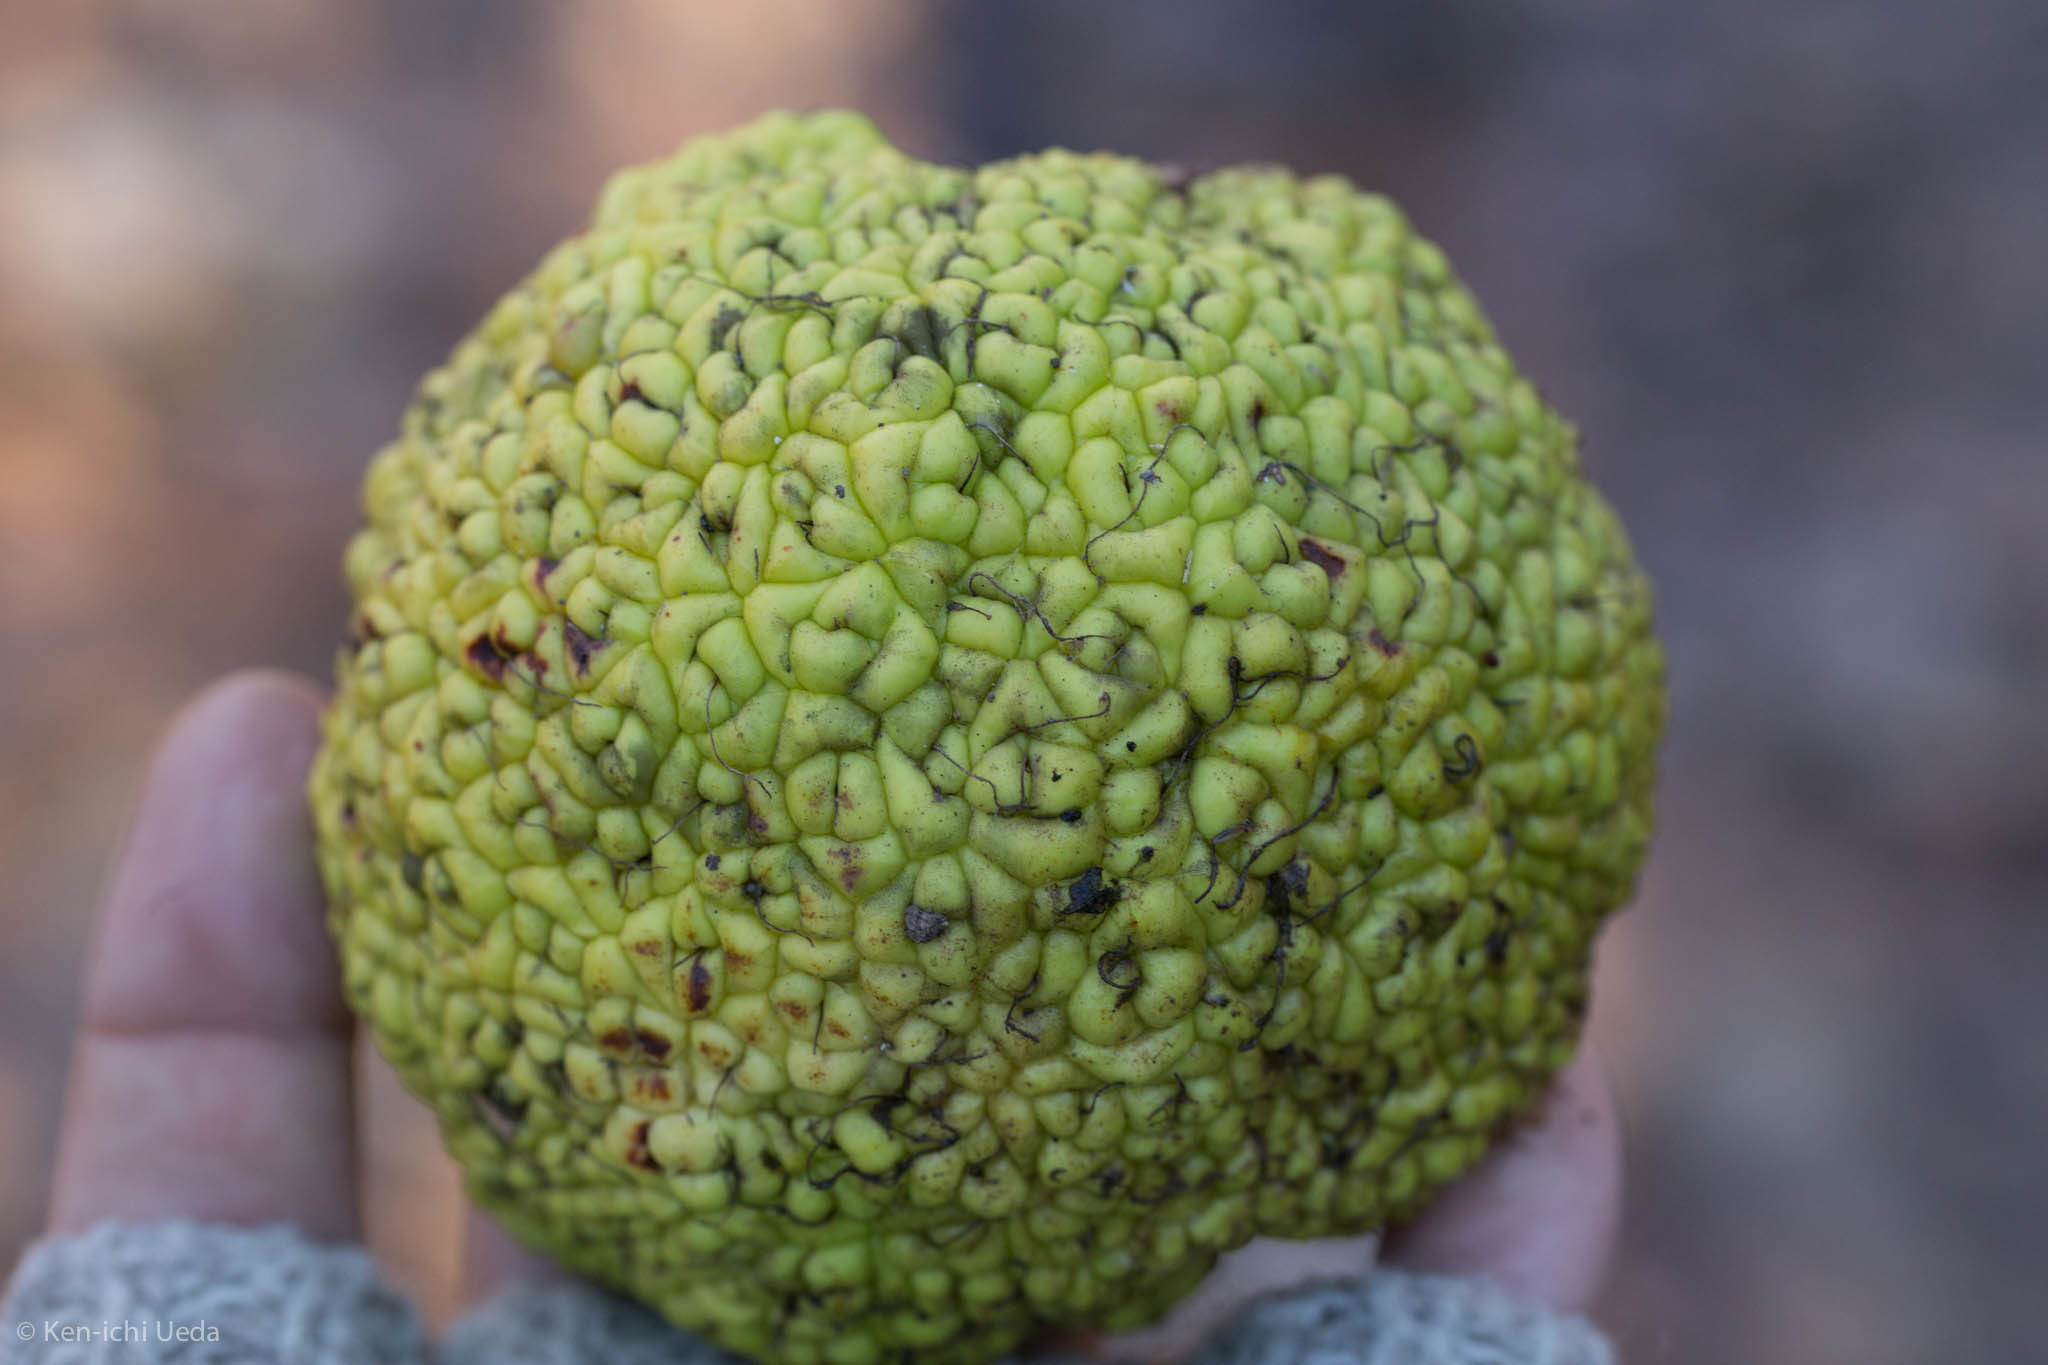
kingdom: Plantae
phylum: Tracheophyta
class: Magnoliopsida
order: Rosales
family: Moraceae
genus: Maclura
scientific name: Maclura pomifera
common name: Osage-orange
